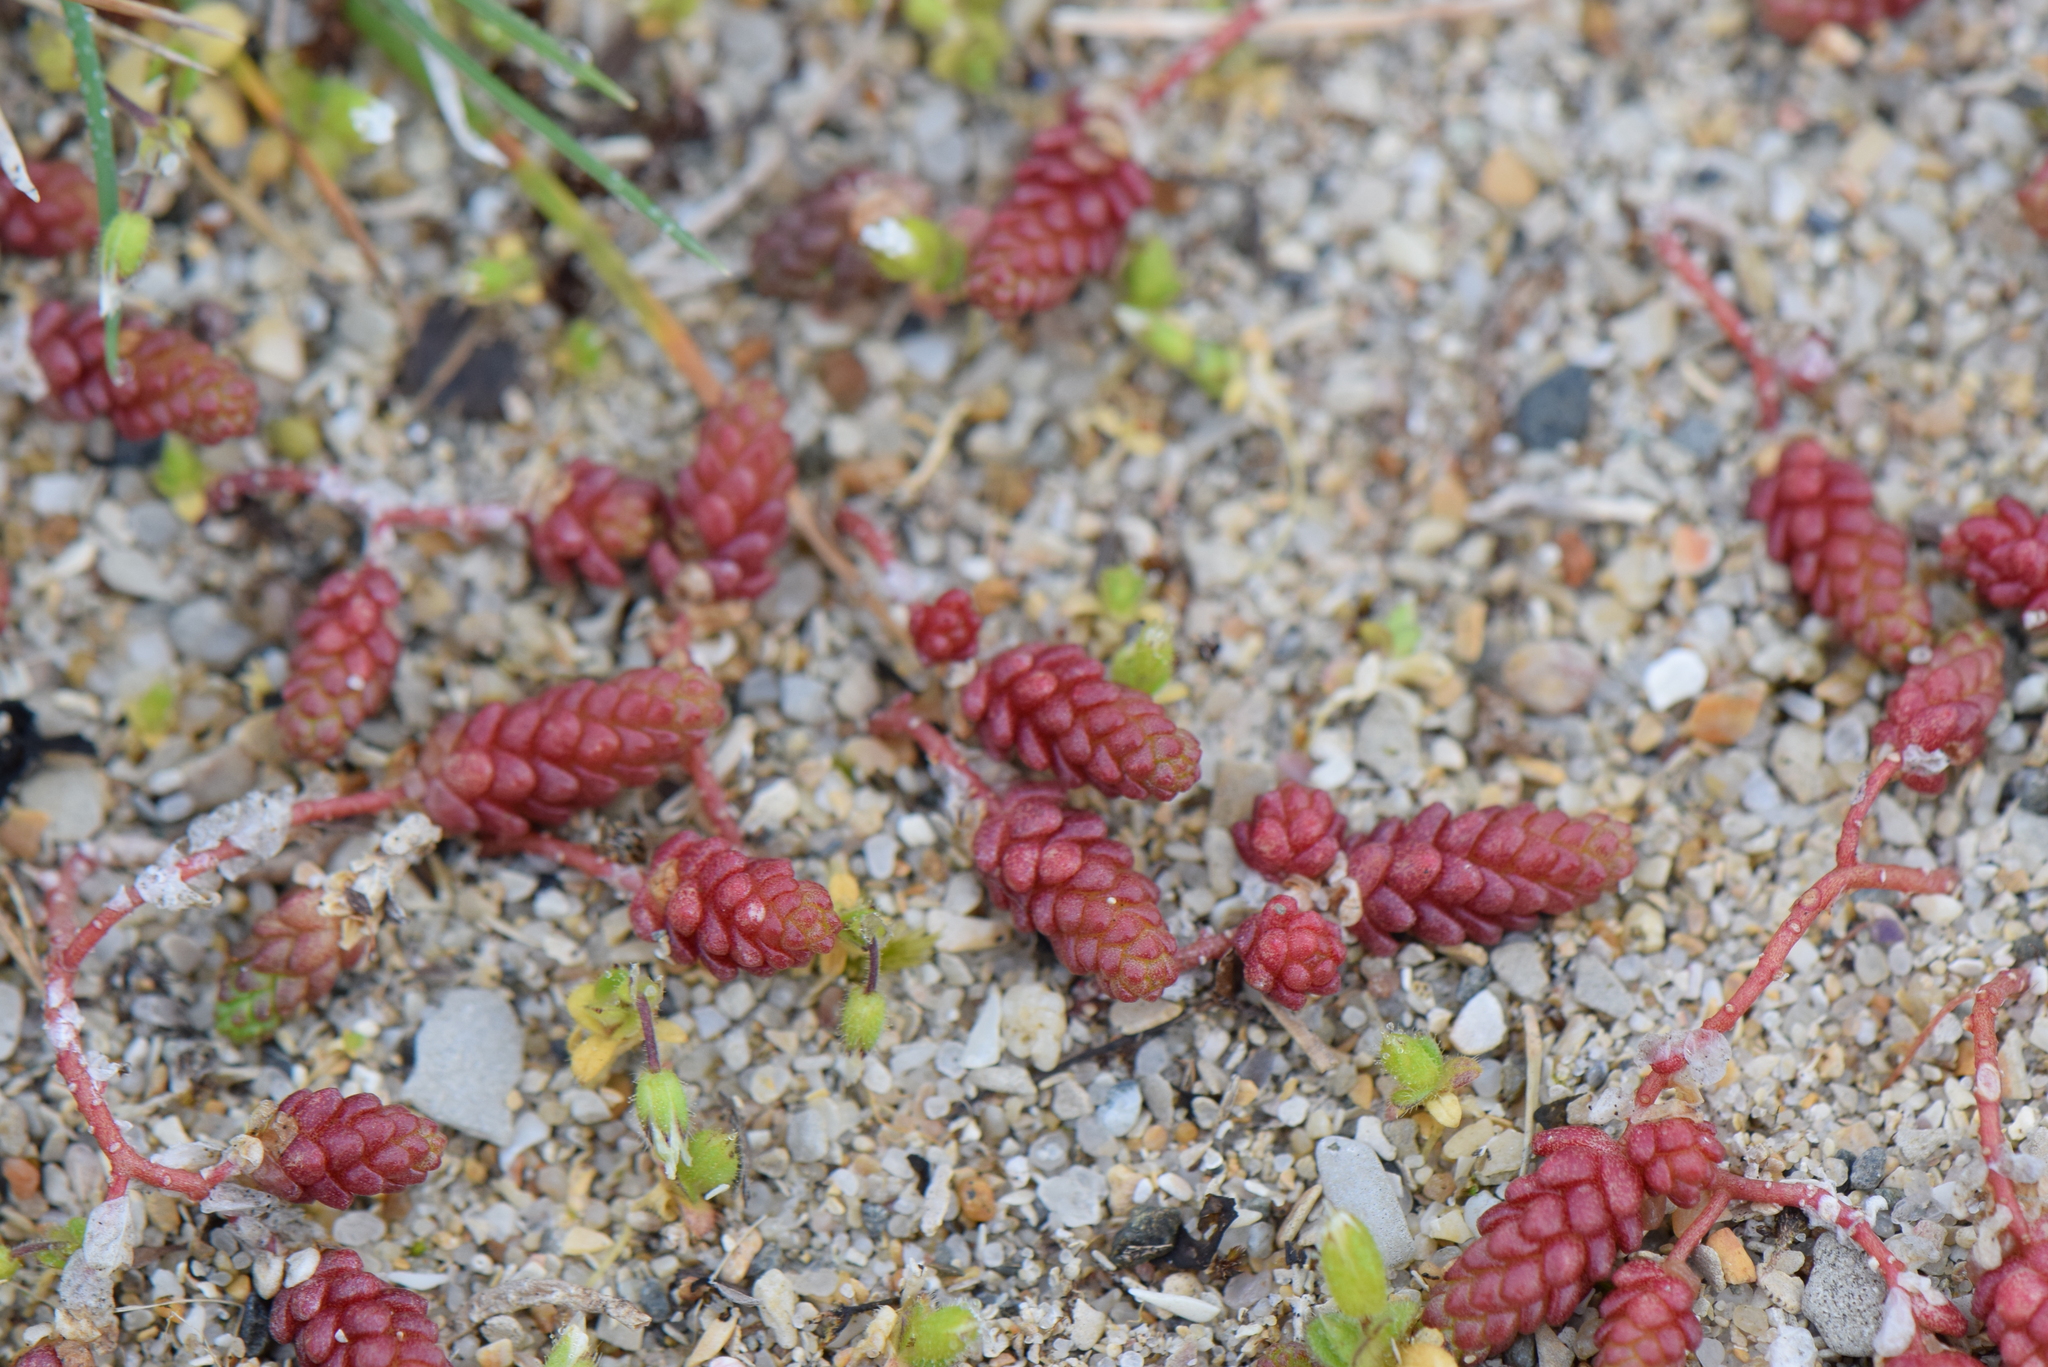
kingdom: Plantae
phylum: Tracheophyta
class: Magnoliopsida
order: Saxifragales
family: Crassulaceae
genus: Sedum
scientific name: Sedum acre
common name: Biting stonecrop
